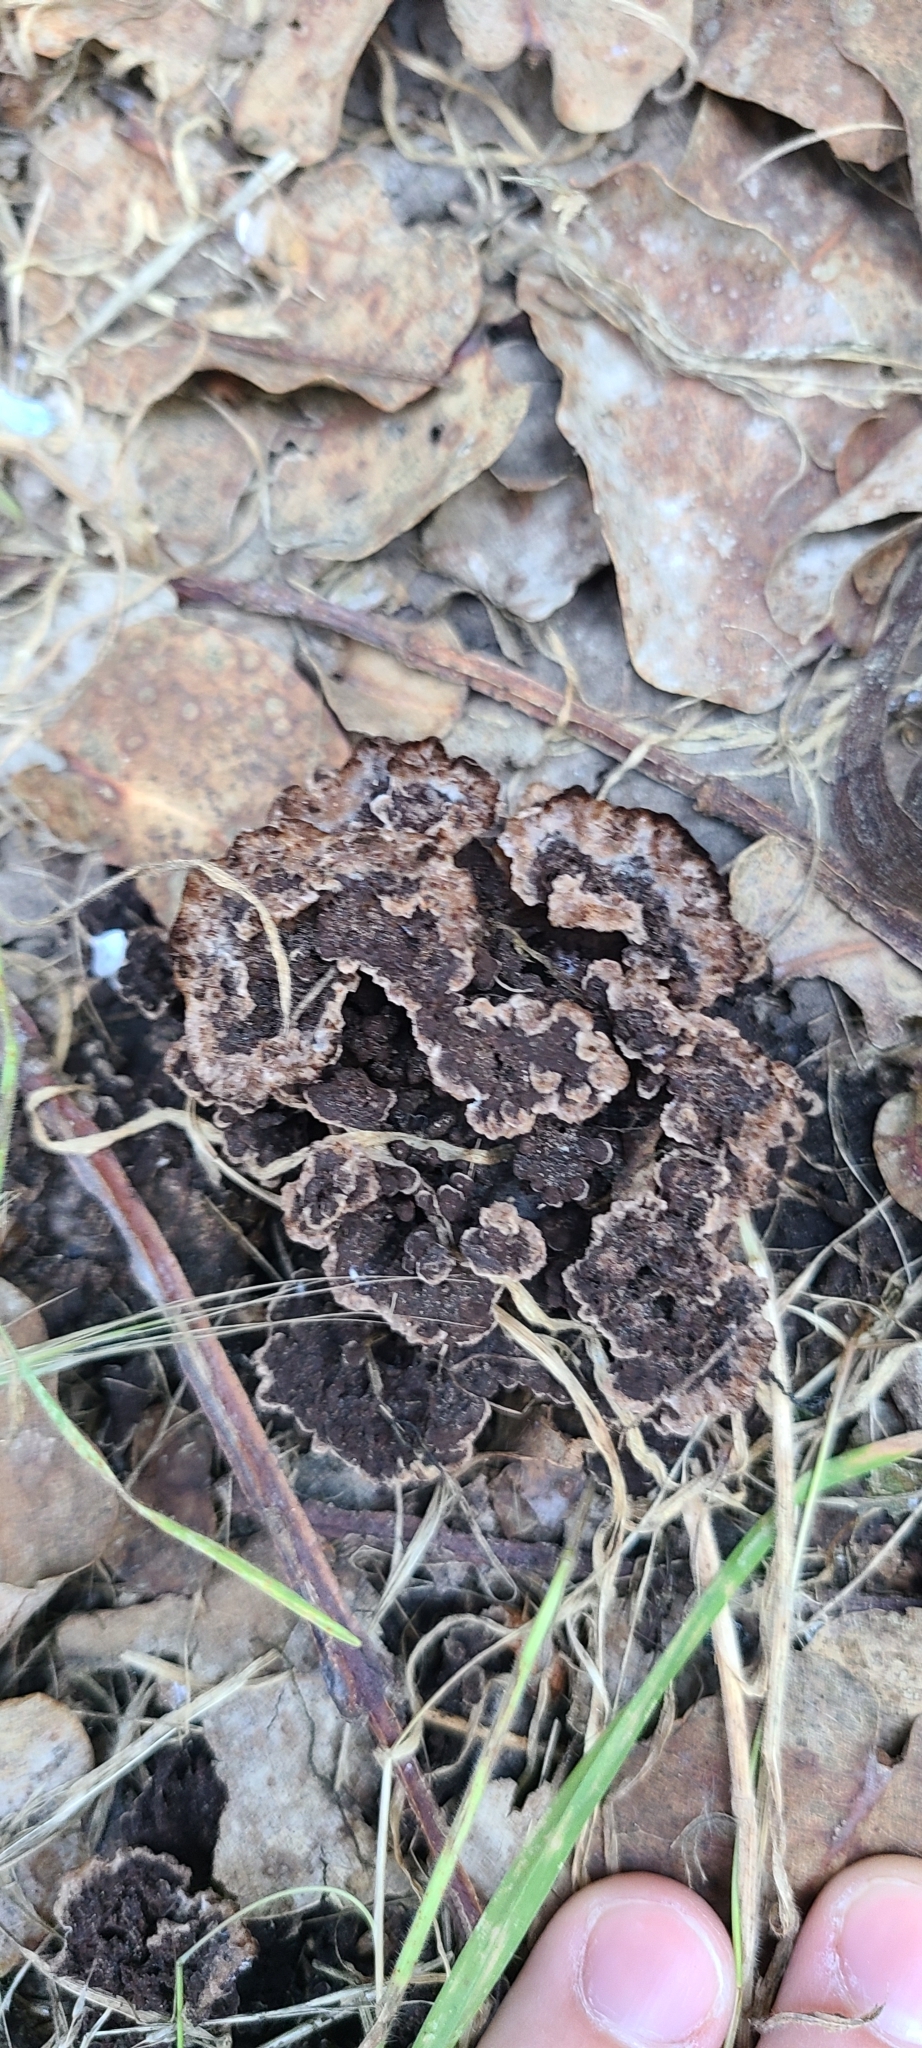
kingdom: Fungi
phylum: Basidiomycota
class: Agaricomycetes
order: Thelephorales
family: Thelephoraceae
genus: Thelephora
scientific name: Thelephora terrestris
